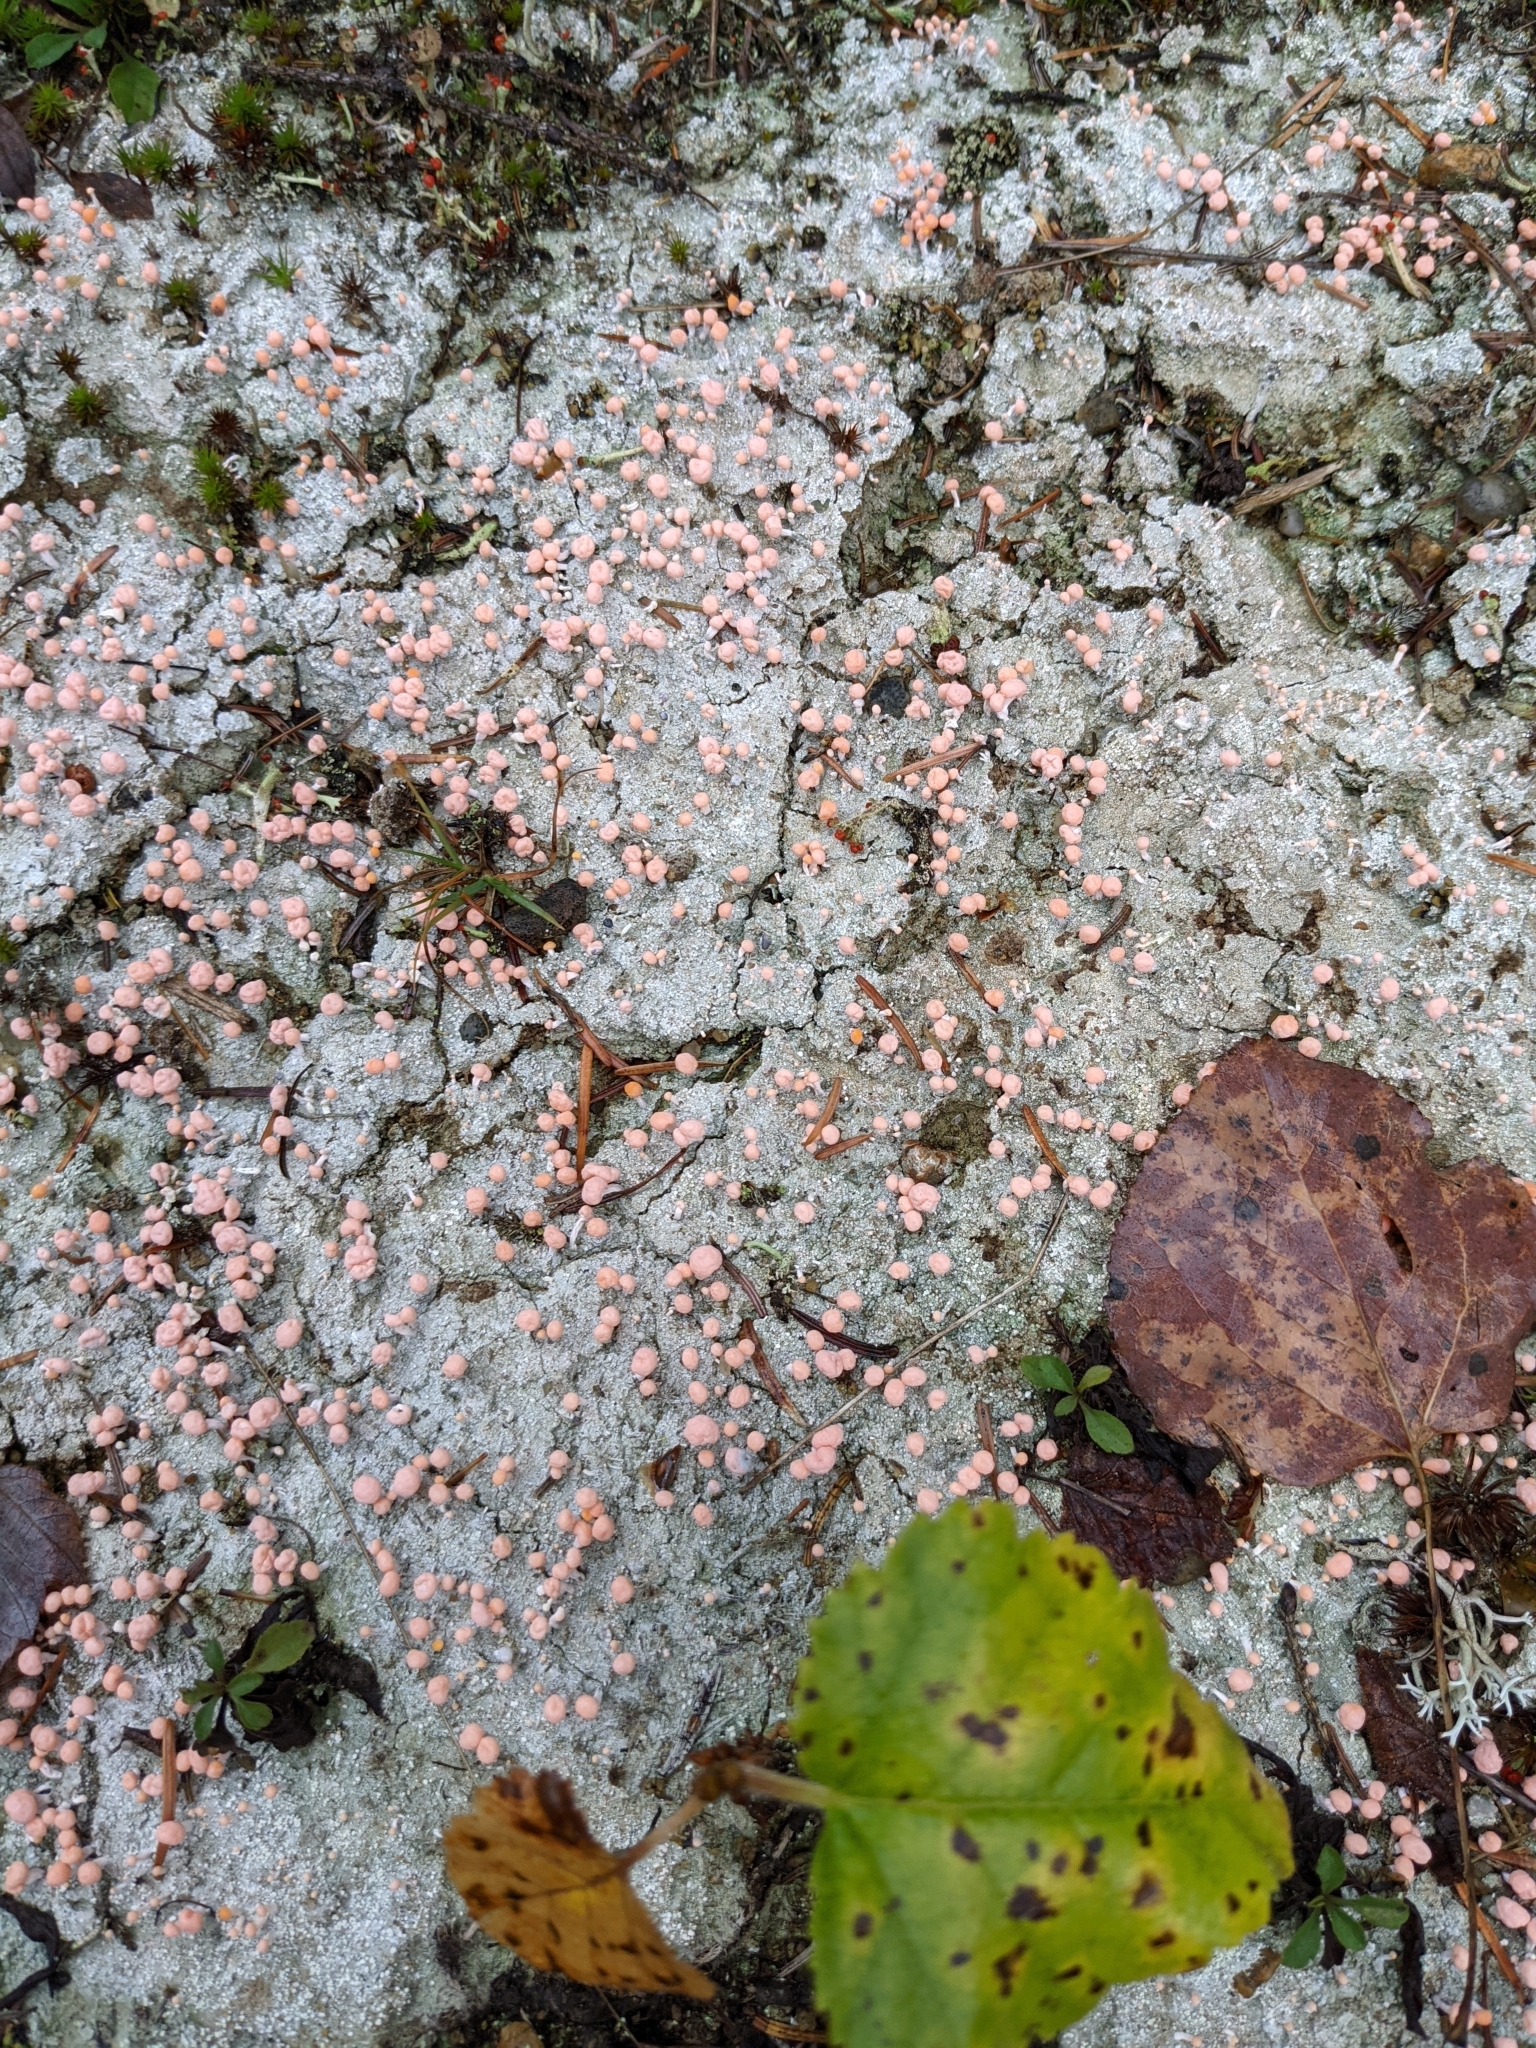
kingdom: Fungi
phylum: Ascomycota
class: Lecanoromycetes
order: Pertusariales
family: Icmadophilaceae
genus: Dibaeis
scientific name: Dibaeis baeomyces
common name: Pink earth lichen
